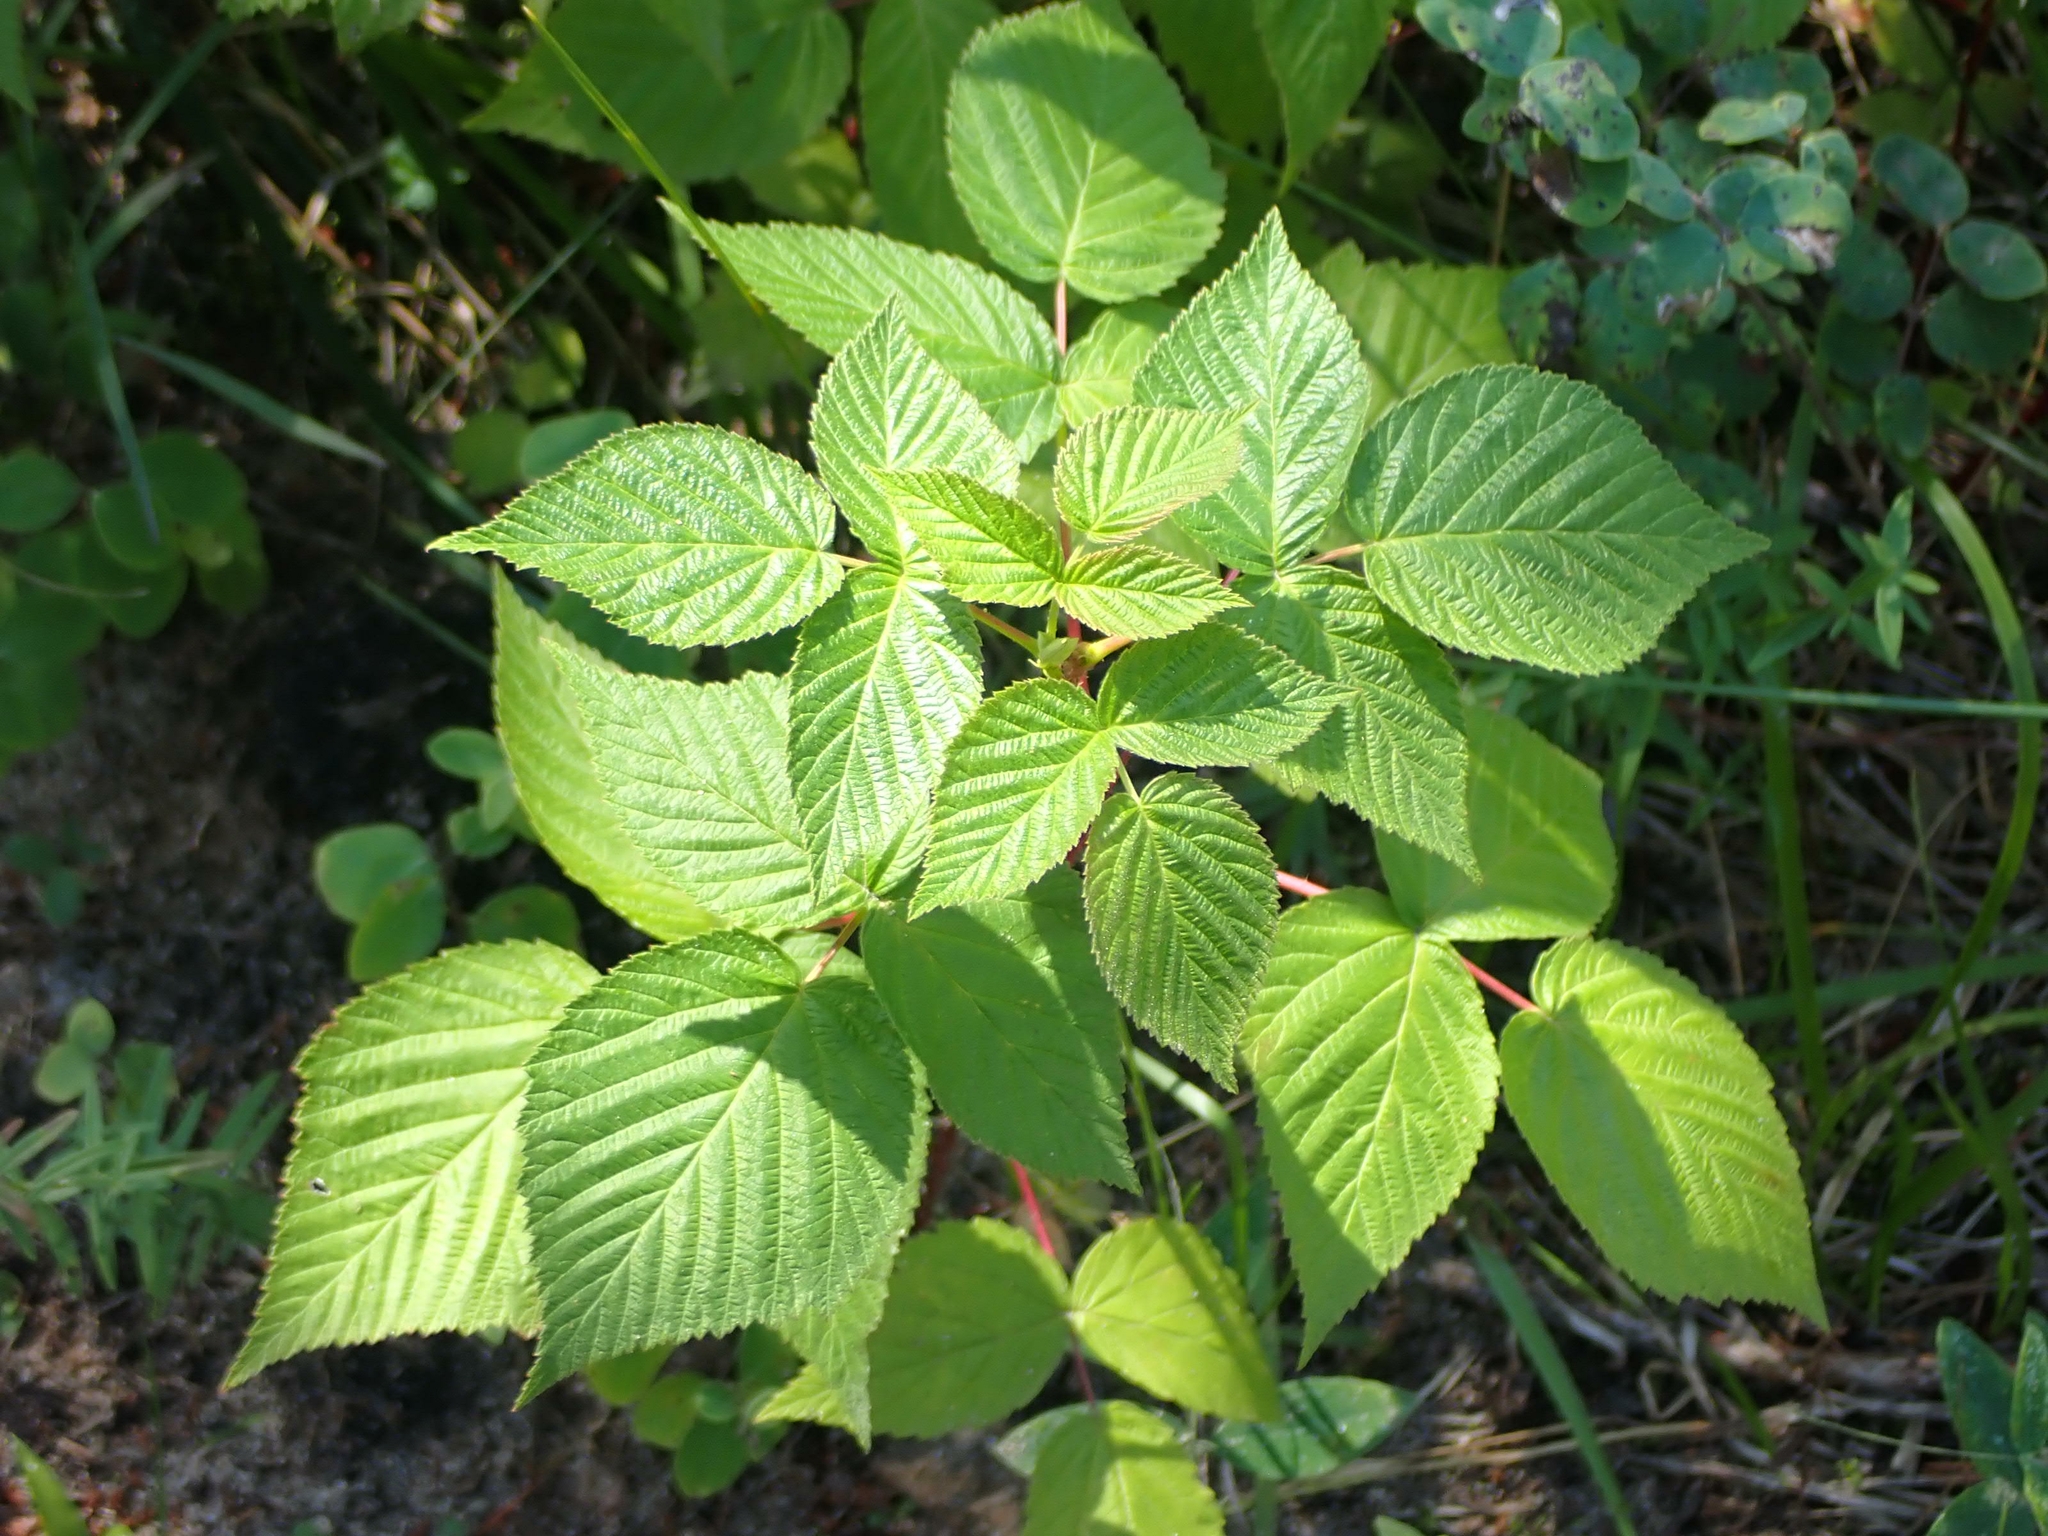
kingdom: Plantae
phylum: Tracheophyta
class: Magnoliopsida
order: Rosales
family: Rosaceae
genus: Rubus
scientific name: Rubus idaeus
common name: Raspberry
